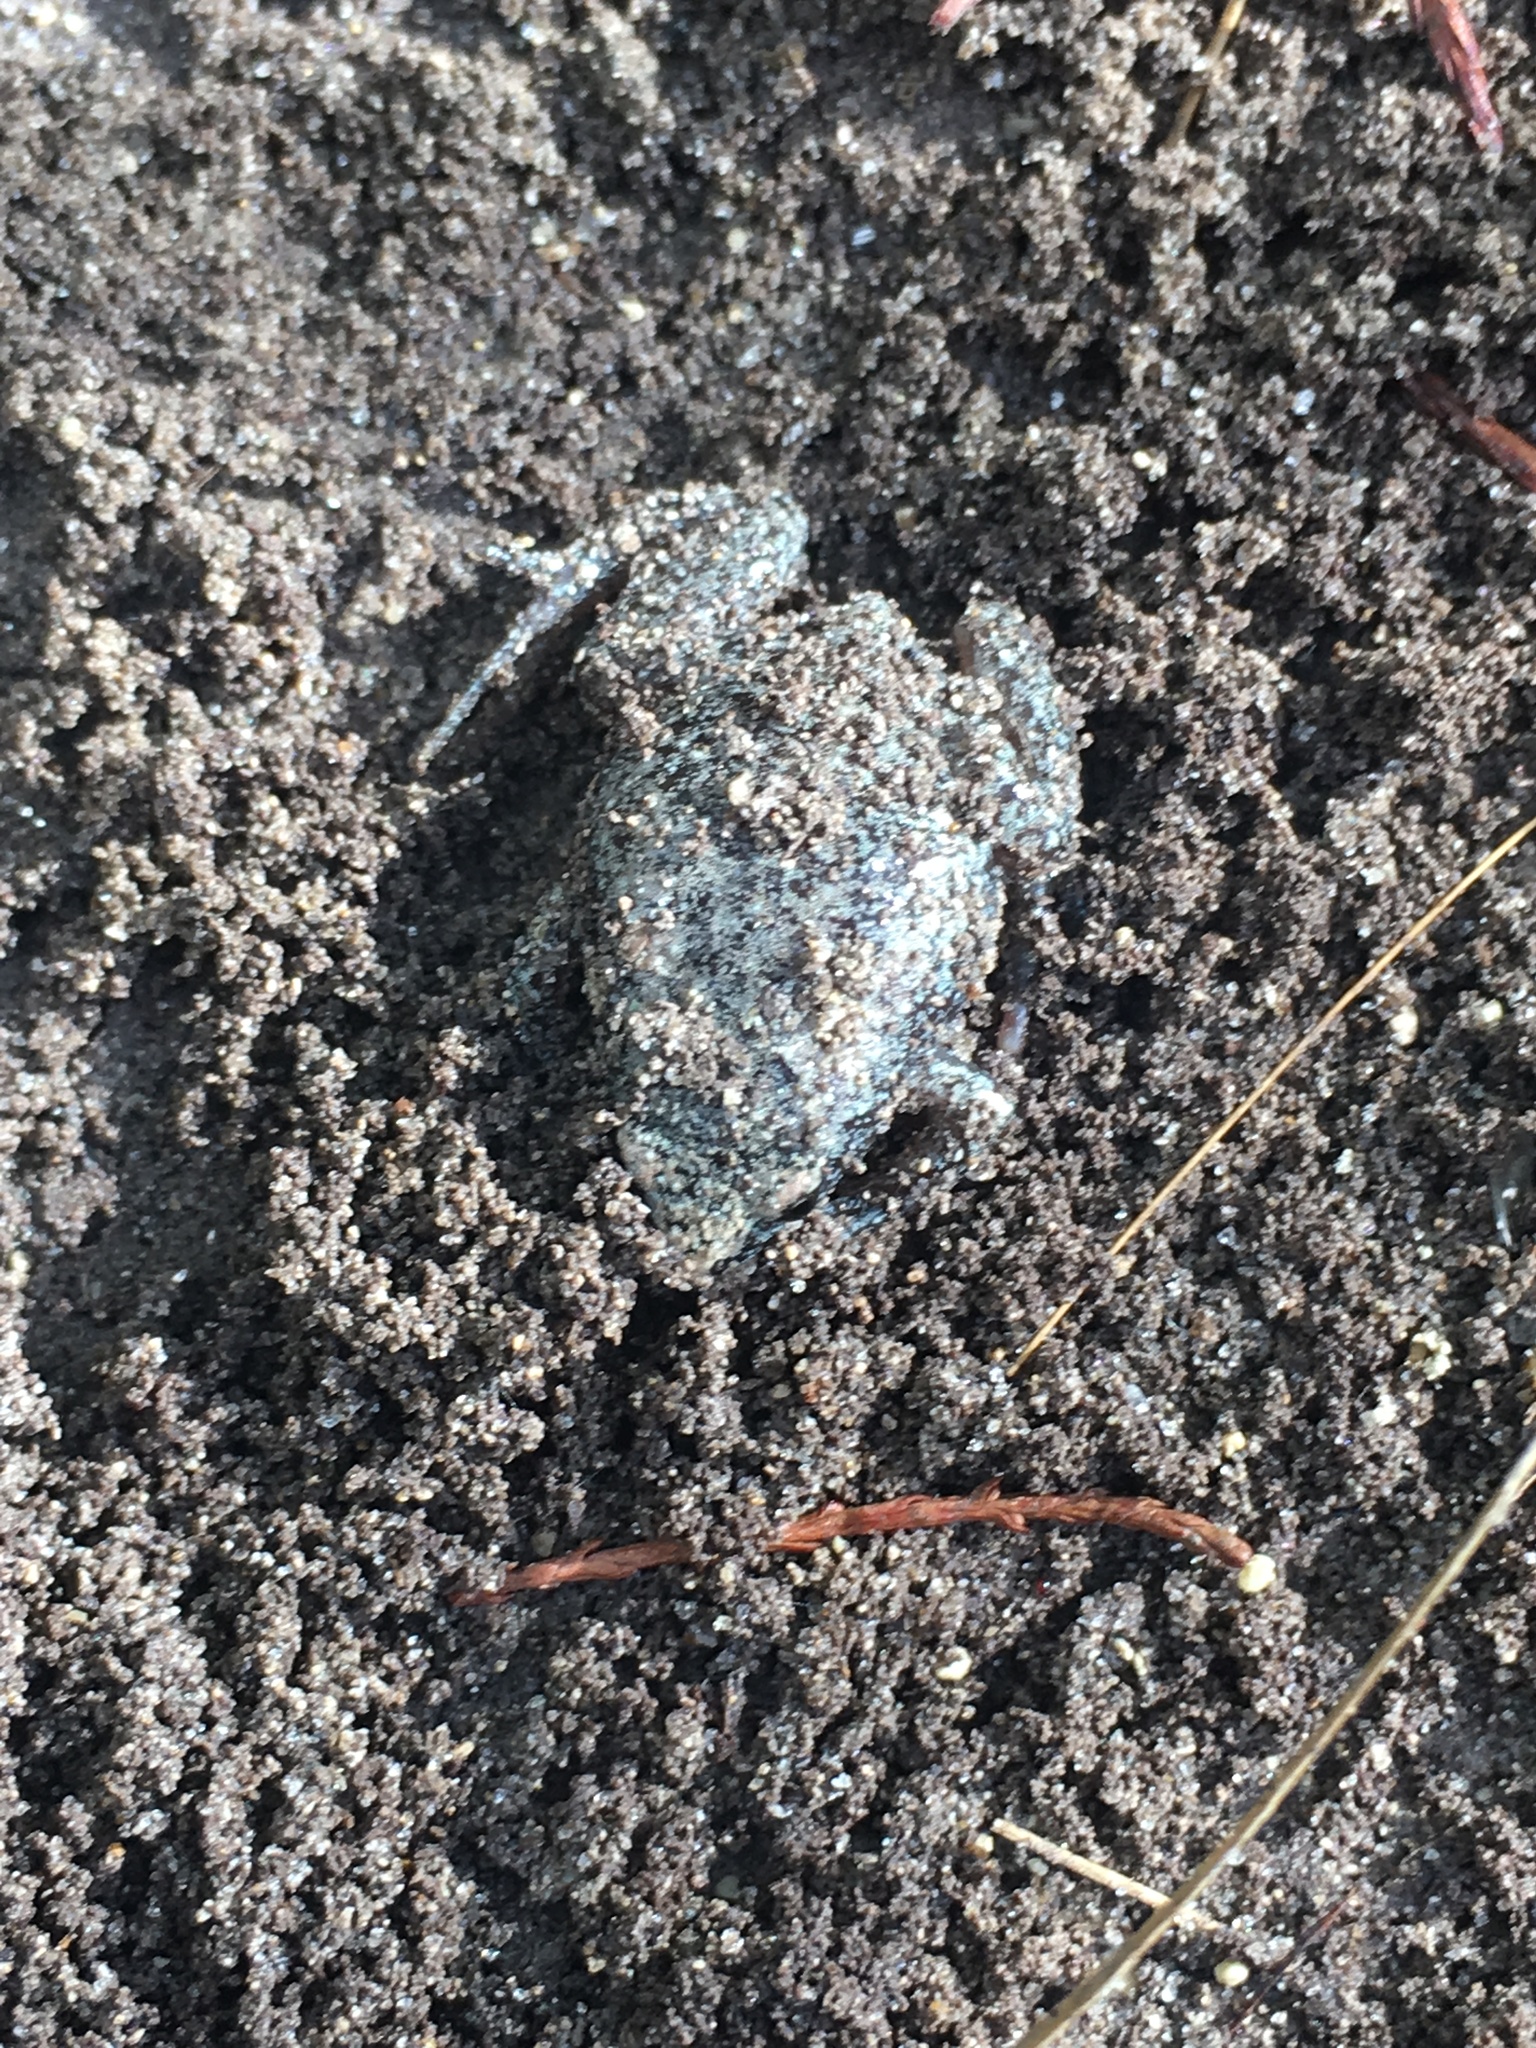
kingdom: Animalia
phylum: Chordata
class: Amphibia
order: Anura
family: Microhylidae
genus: Gastrophryne
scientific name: Gastrophryne carolinensis
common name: Eastern narrowmouth toad
